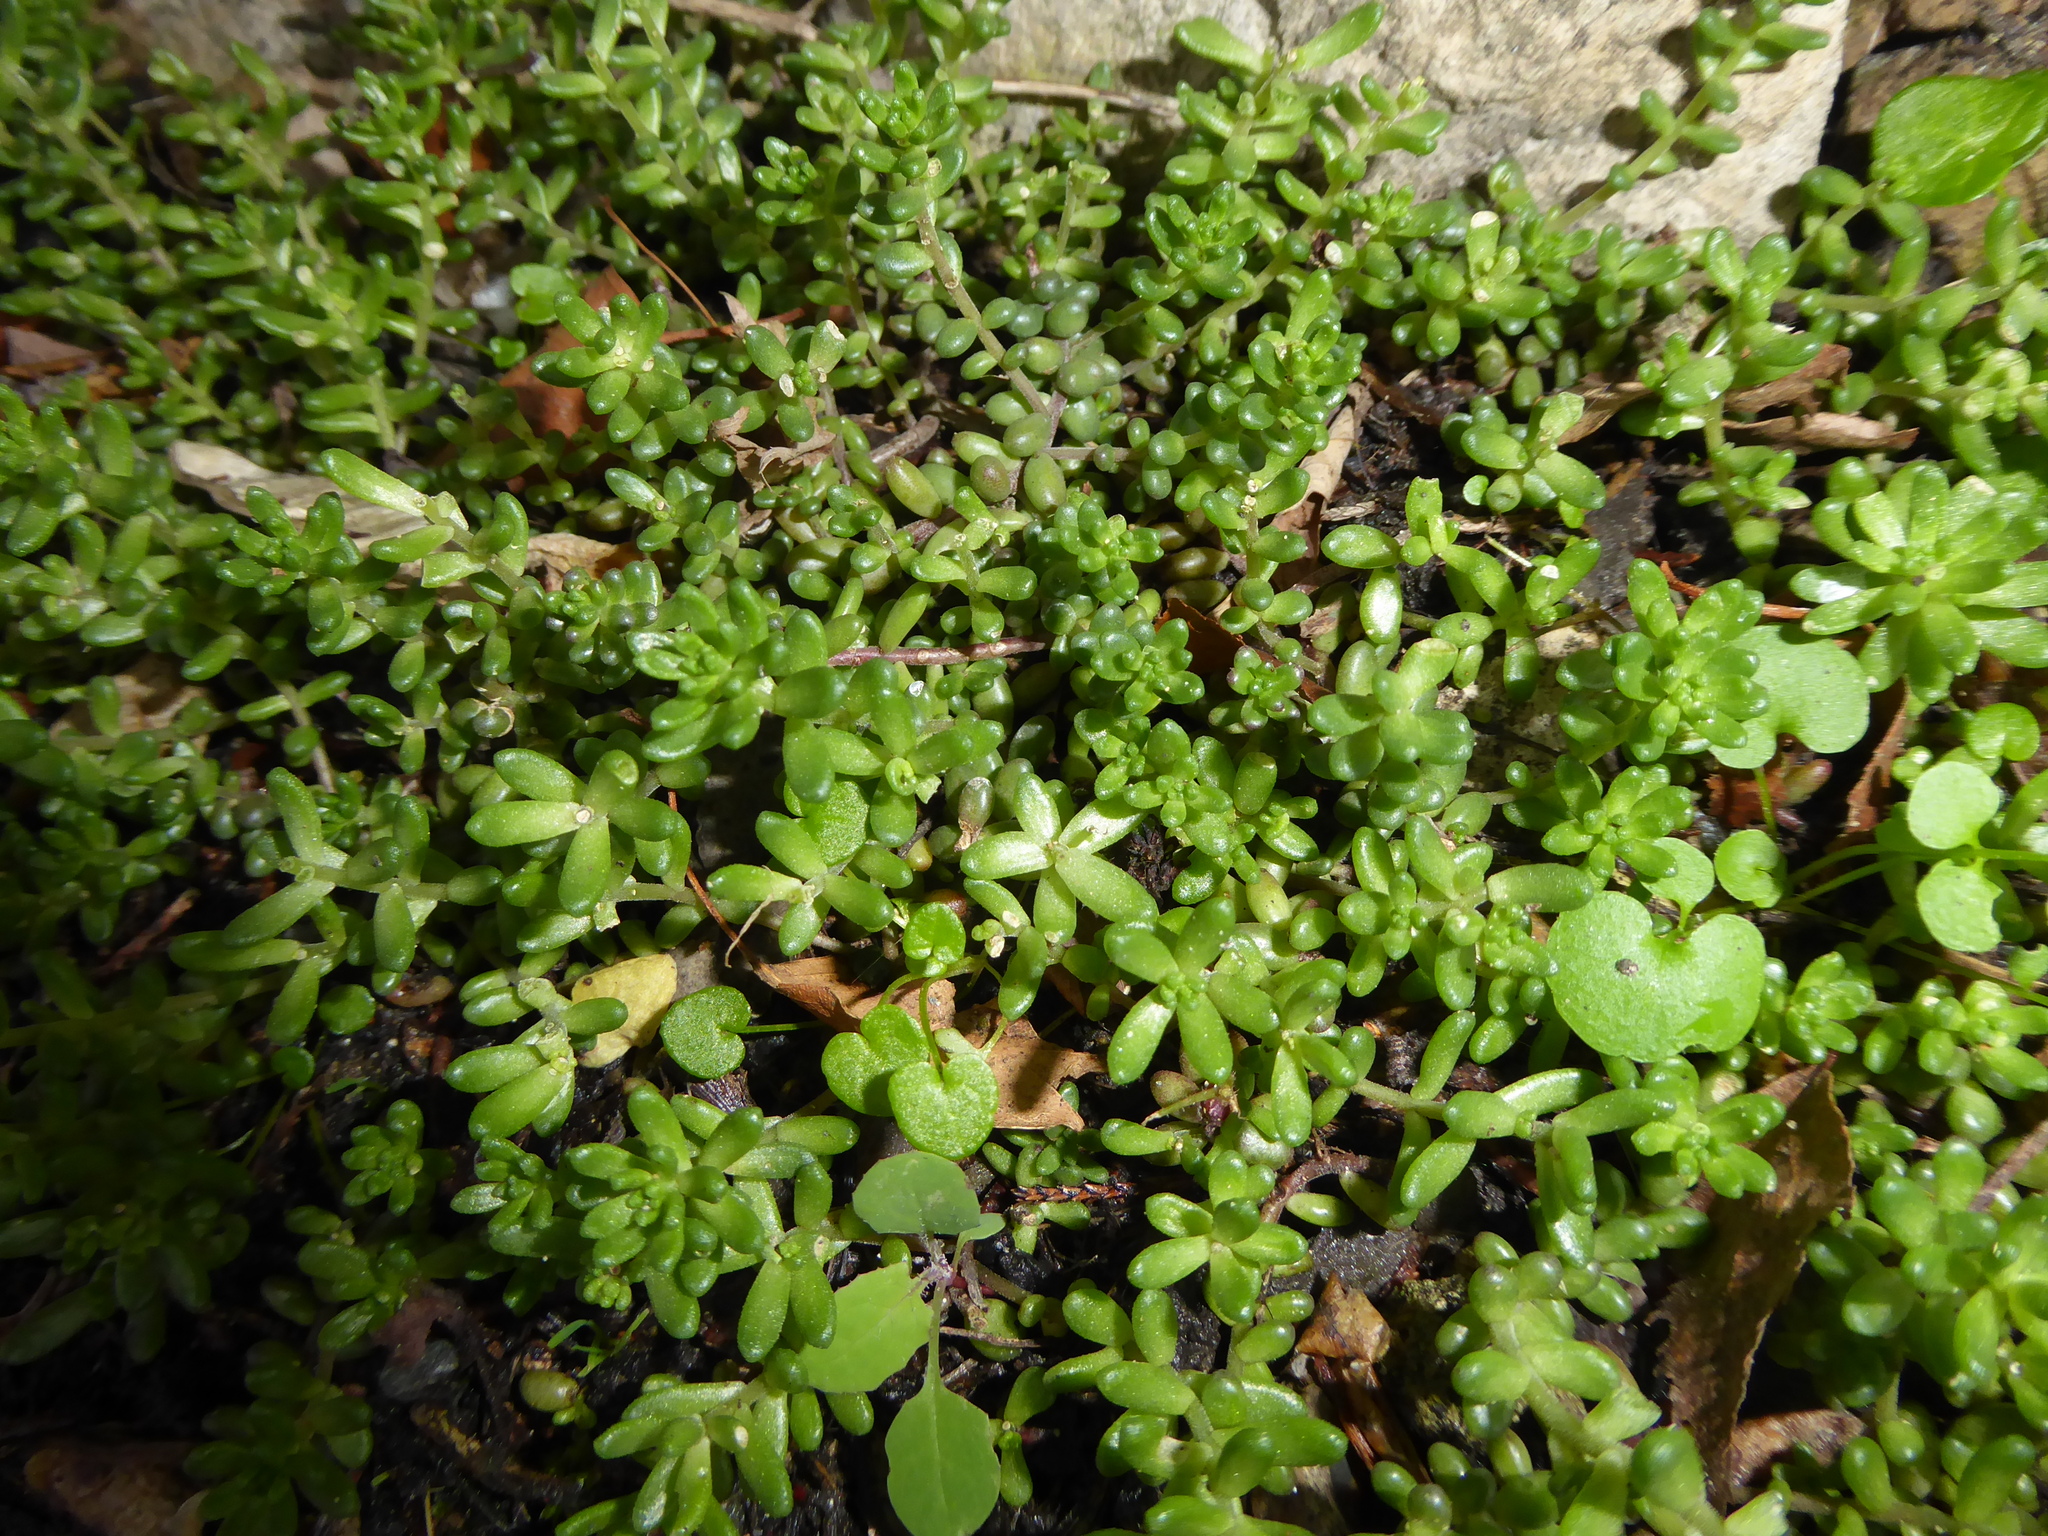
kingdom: Plantae
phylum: Tracheophyta
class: Magnoliopsida
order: Saxifragales
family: Crassulaceae
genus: Sedum
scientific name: Sedum album
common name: White stonecrop
